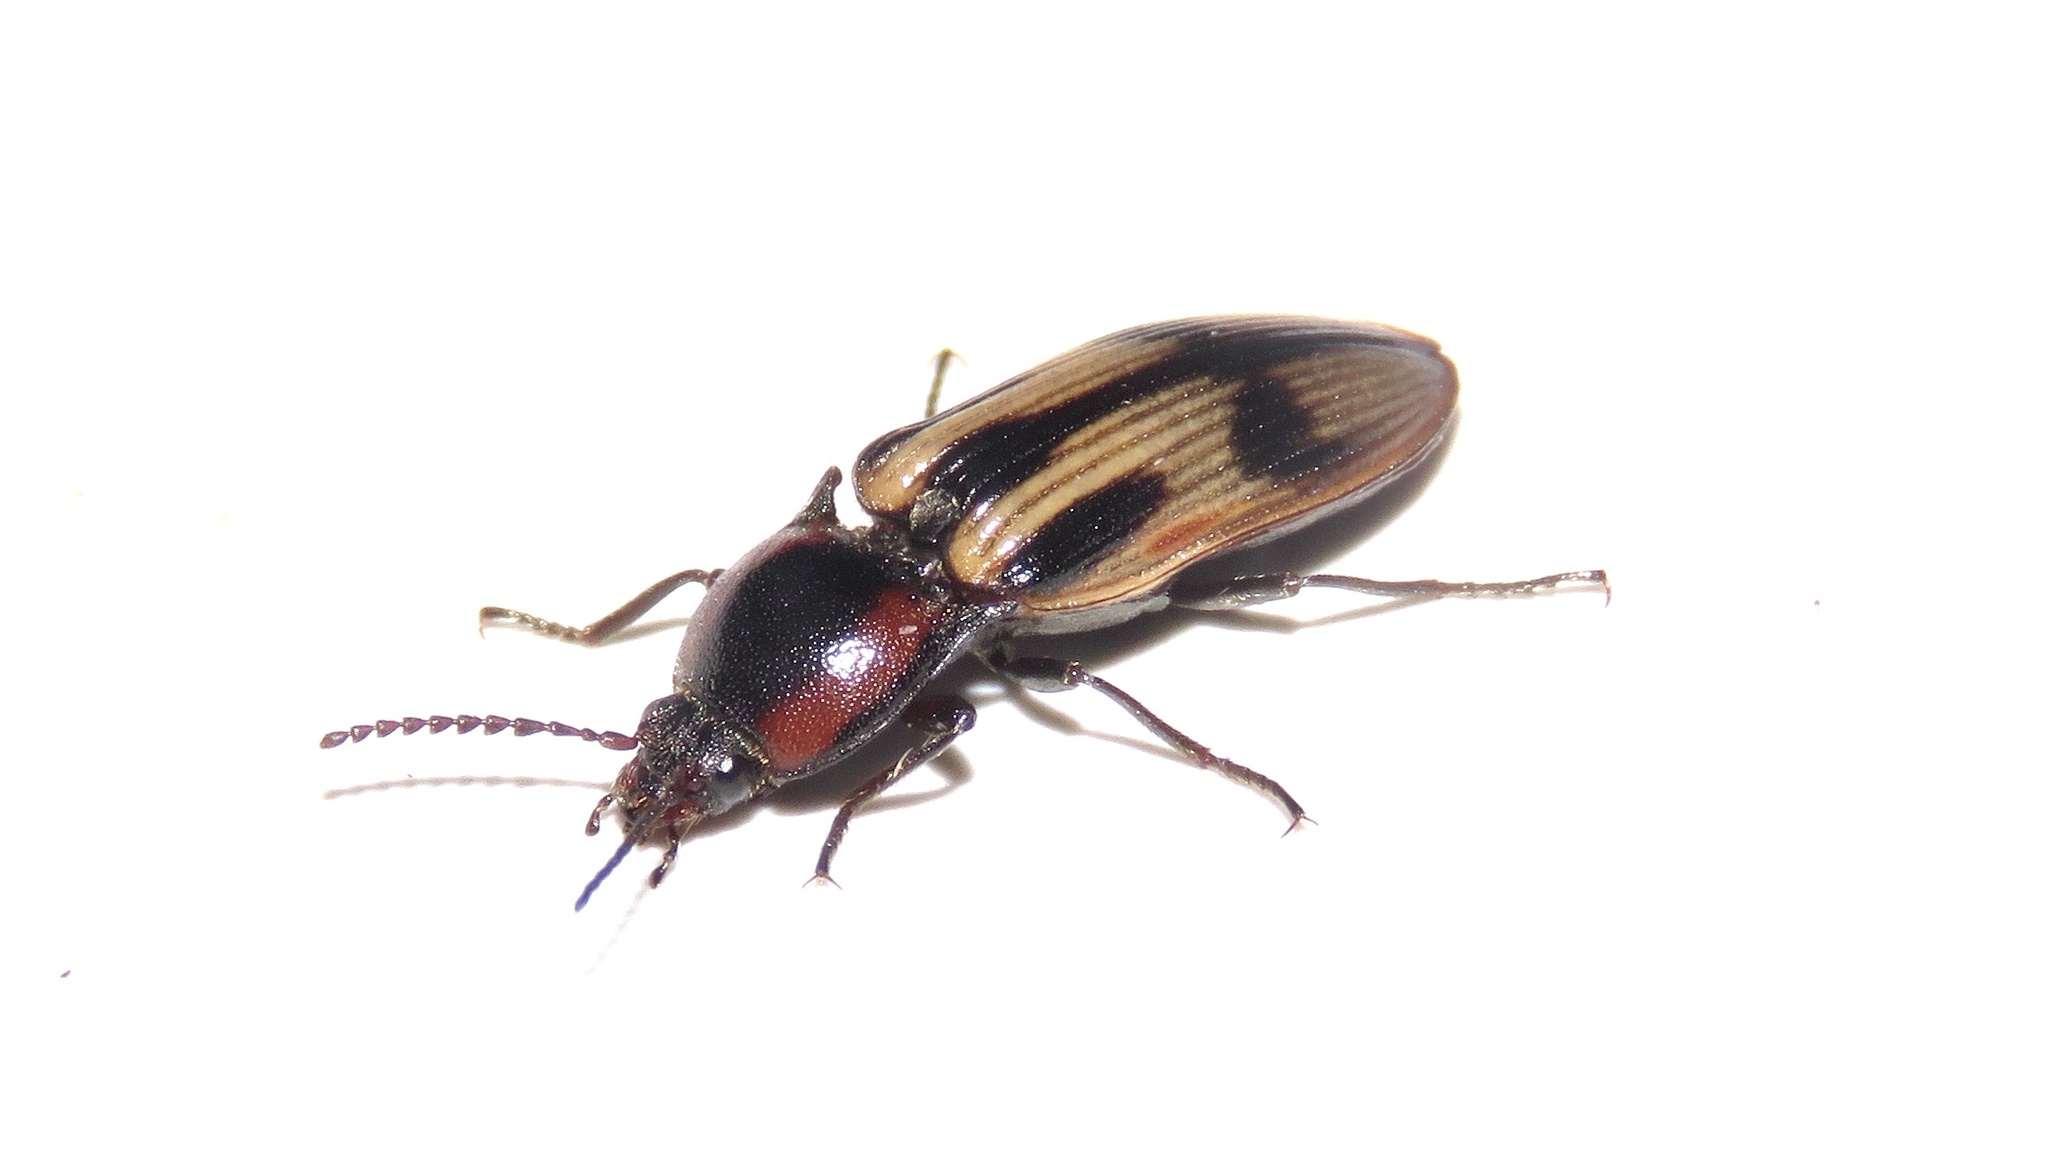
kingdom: Animalia
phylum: Arthropoda
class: Insecta
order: Coleoptera
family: Elateridae
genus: Selatosomus
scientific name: Selatosomus pulcher
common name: Noble click beetle
